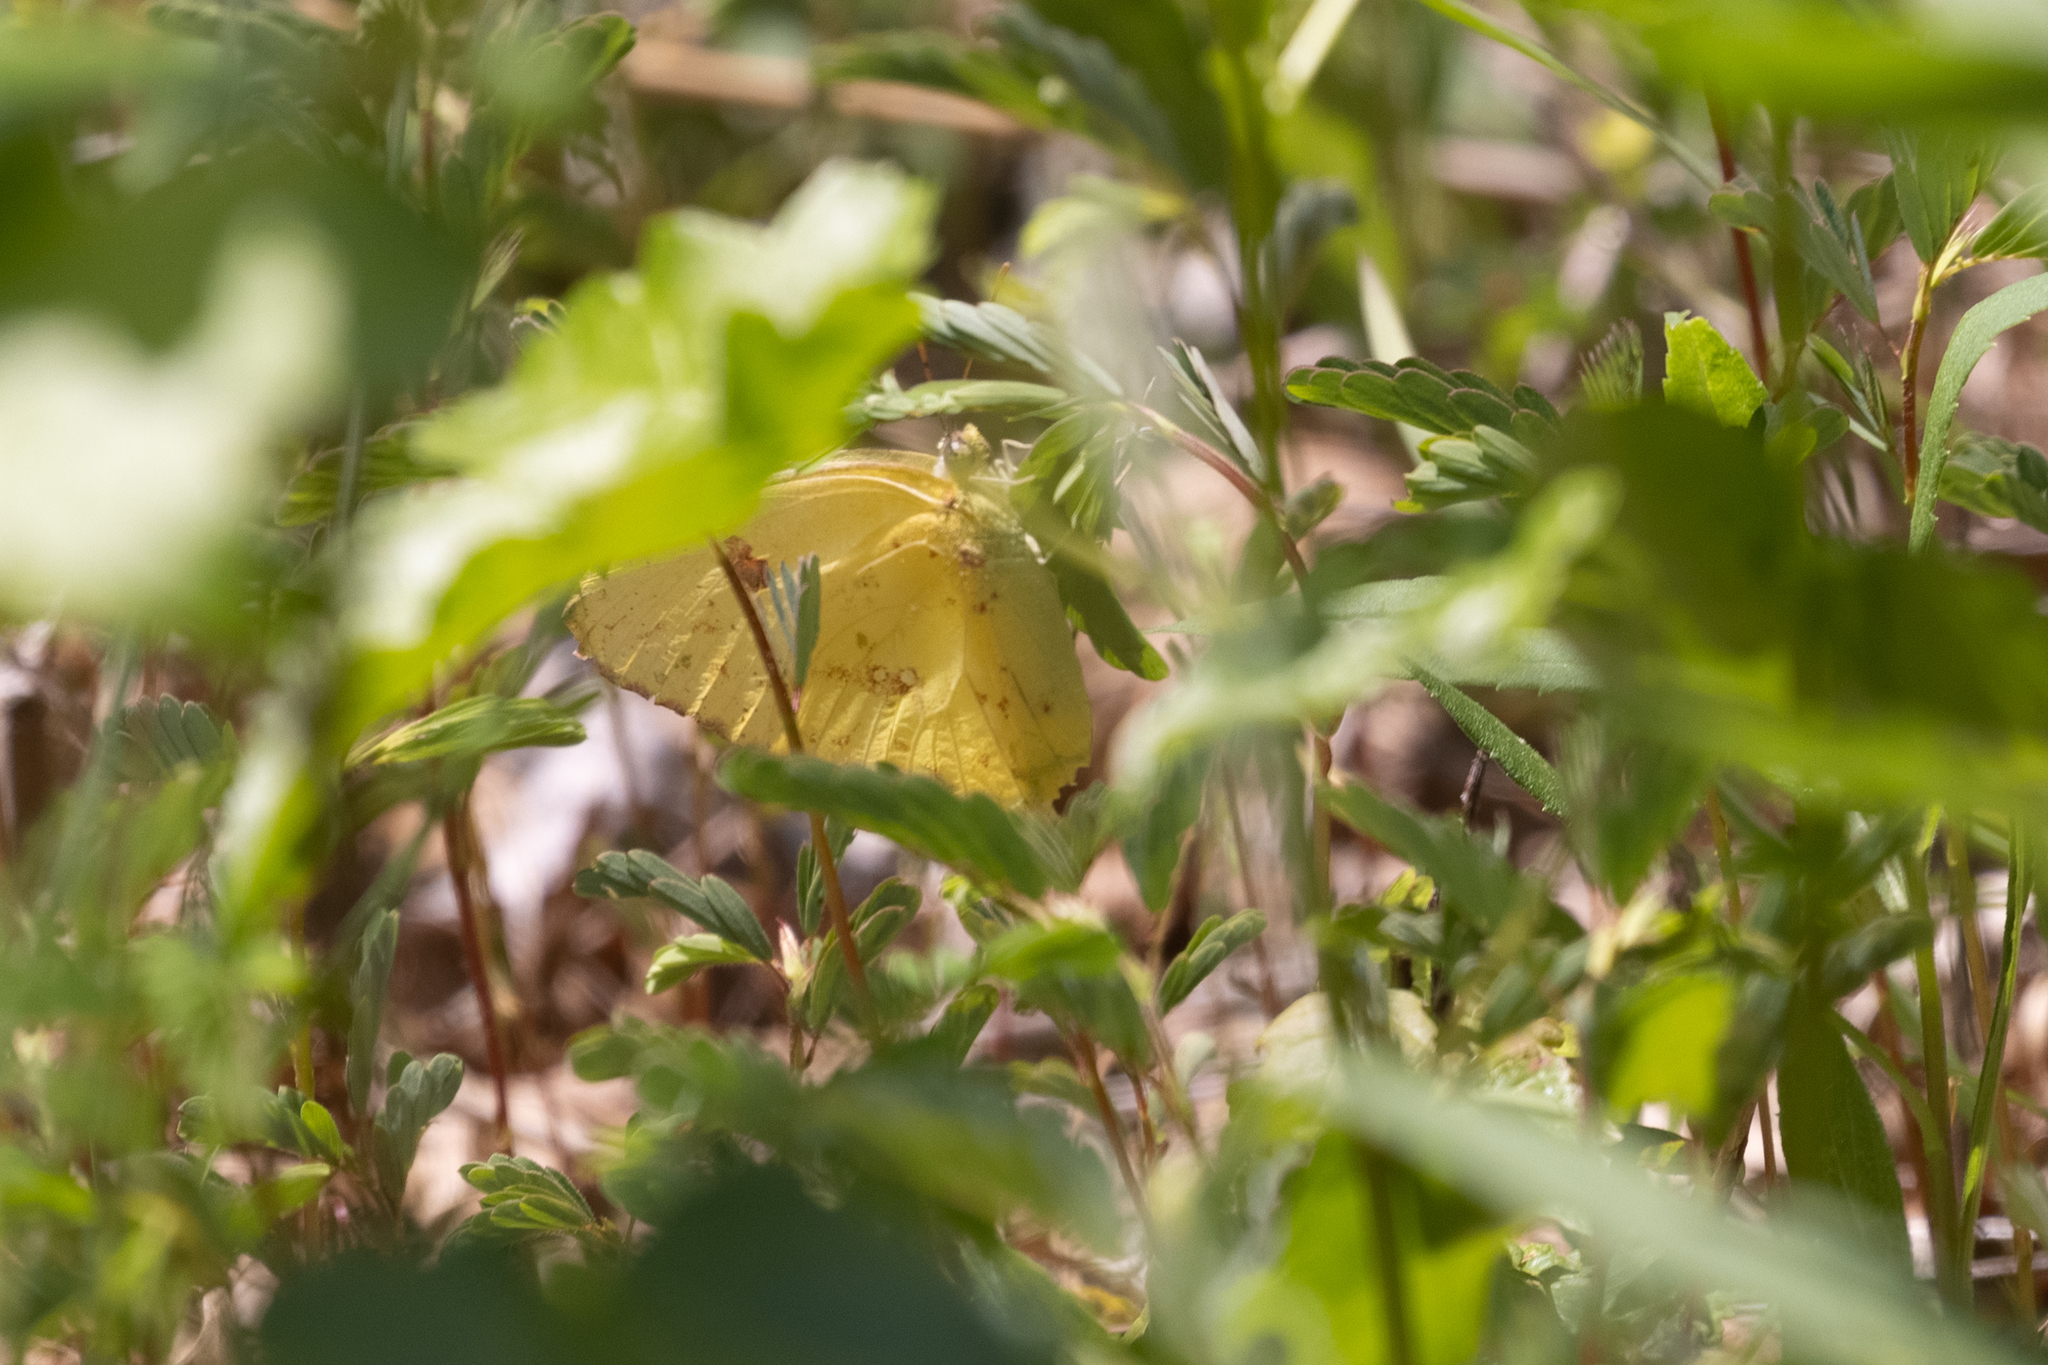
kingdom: Animalia
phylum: Arthropoda
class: Insecta
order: Lepidoptera
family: Pieridae
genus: Phoebis
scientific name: Phoebis sennae
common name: Cloudless sulphur
